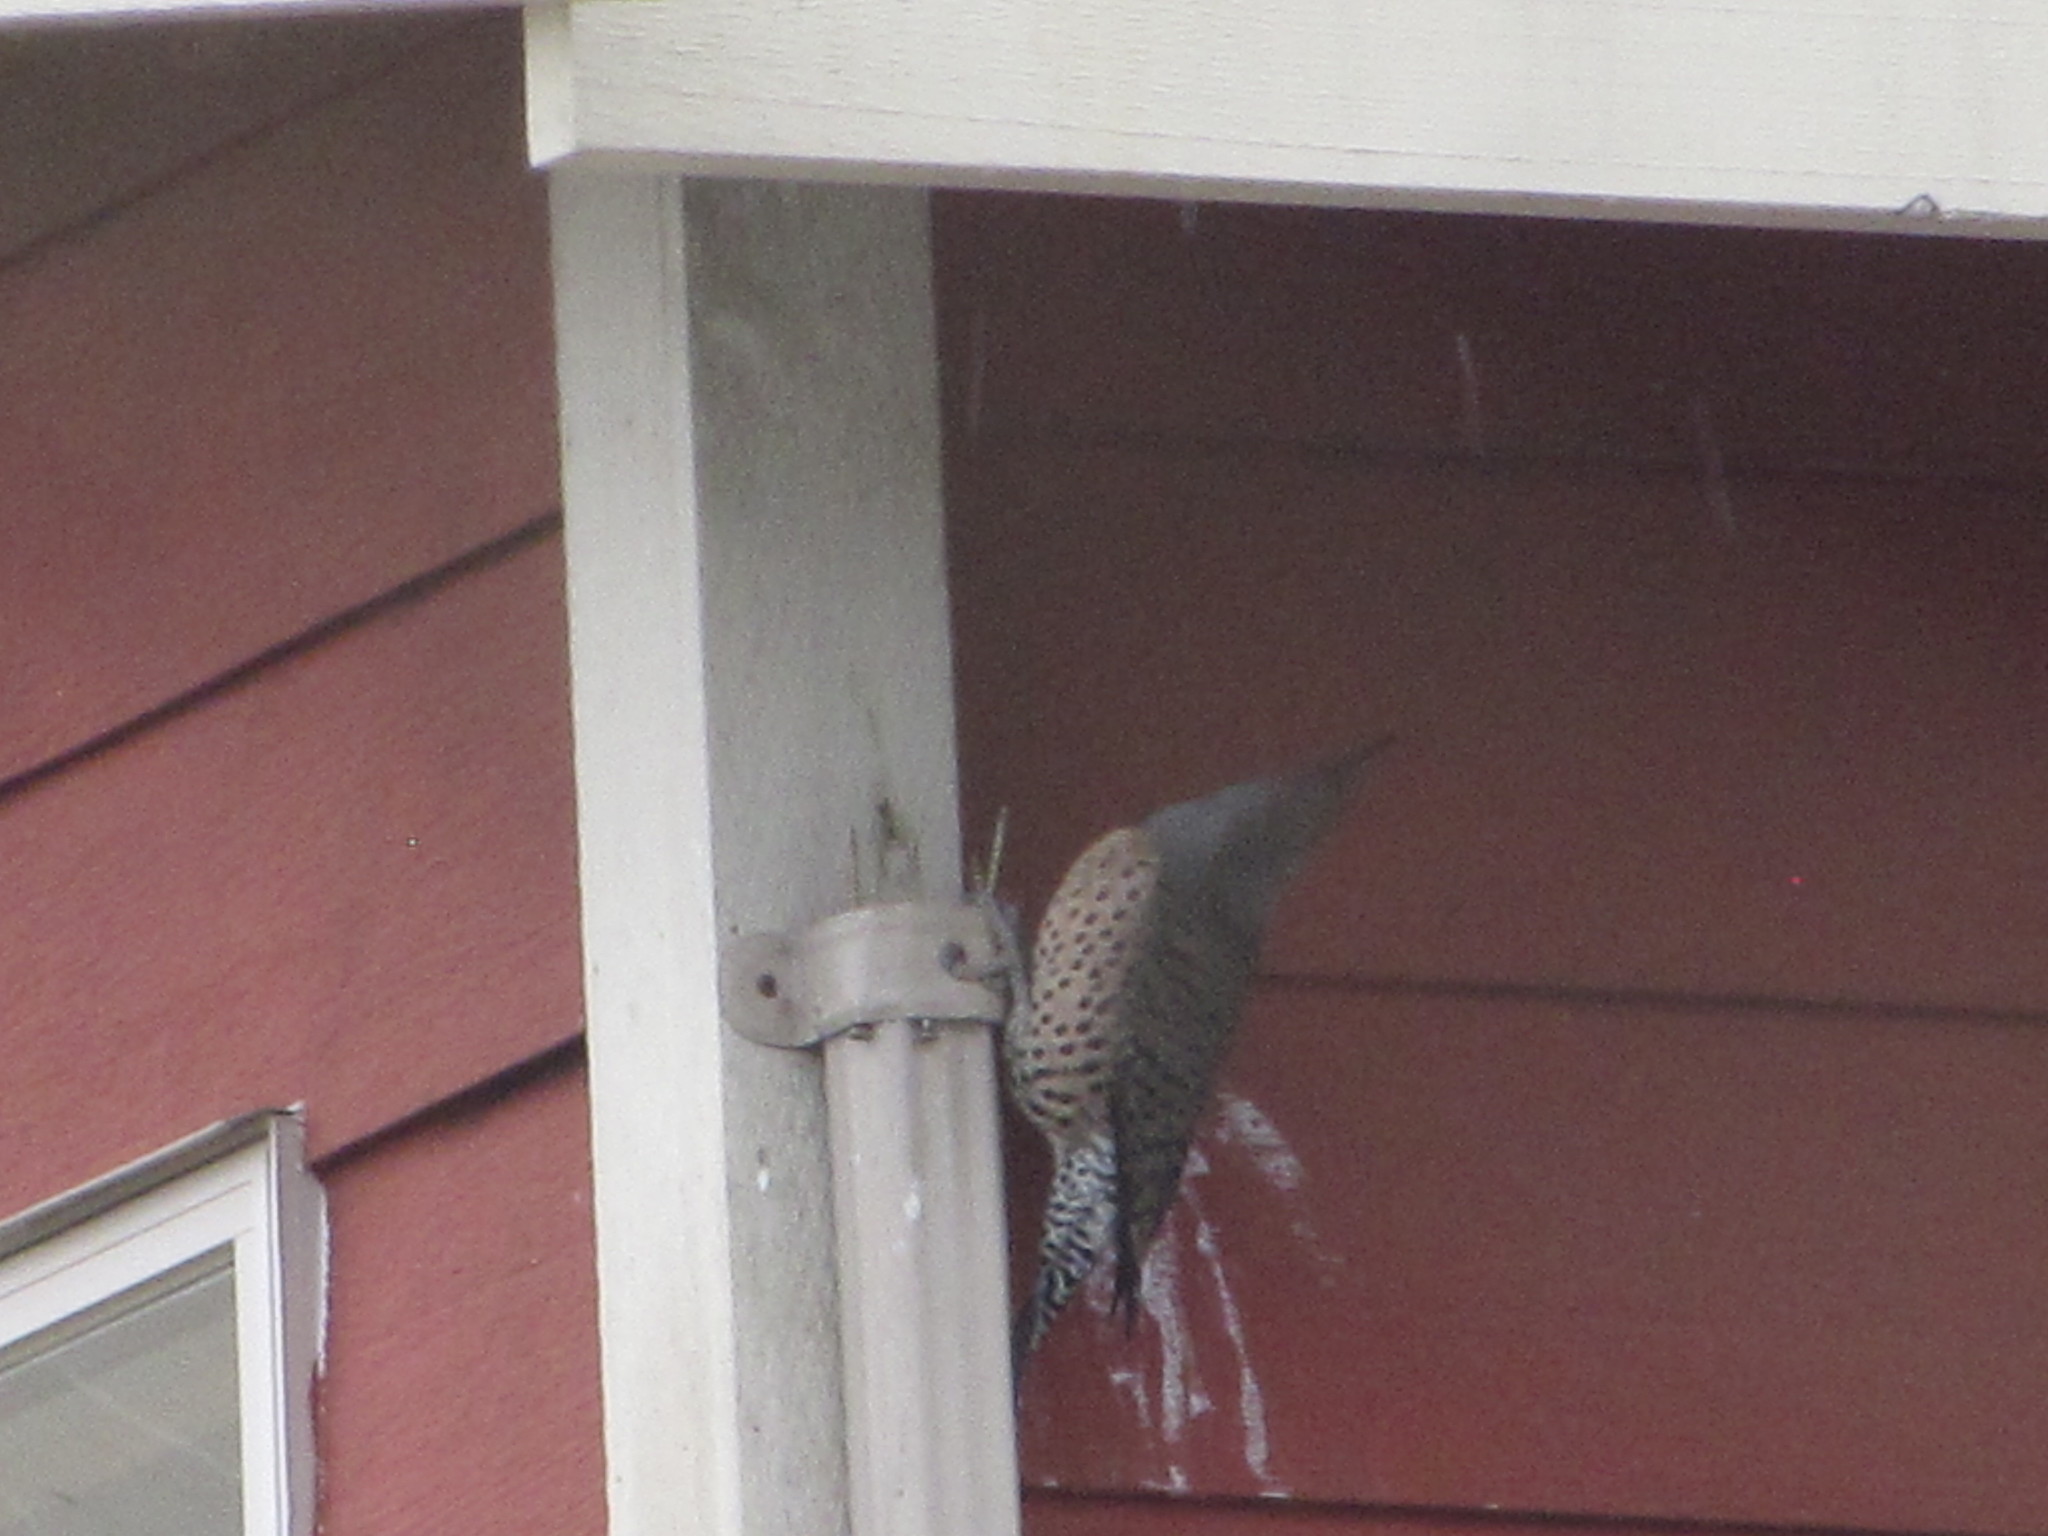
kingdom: Animalia
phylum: Chordata
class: Aves
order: Piciformes
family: Picidae
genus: Colaptes
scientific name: Colaptes auratus
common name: Northern flicker
